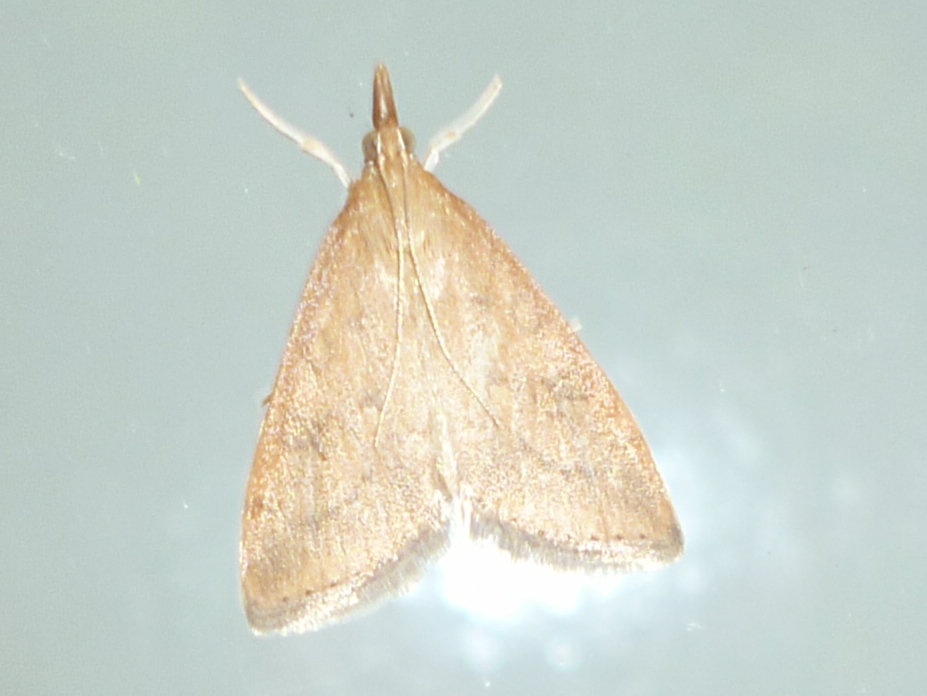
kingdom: Animalia
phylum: Arthropoda
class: Insecta
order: Lepidoptera
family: Crambidae
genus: Udea
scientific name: Udea rubigalis
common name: Celery leaftier moth
